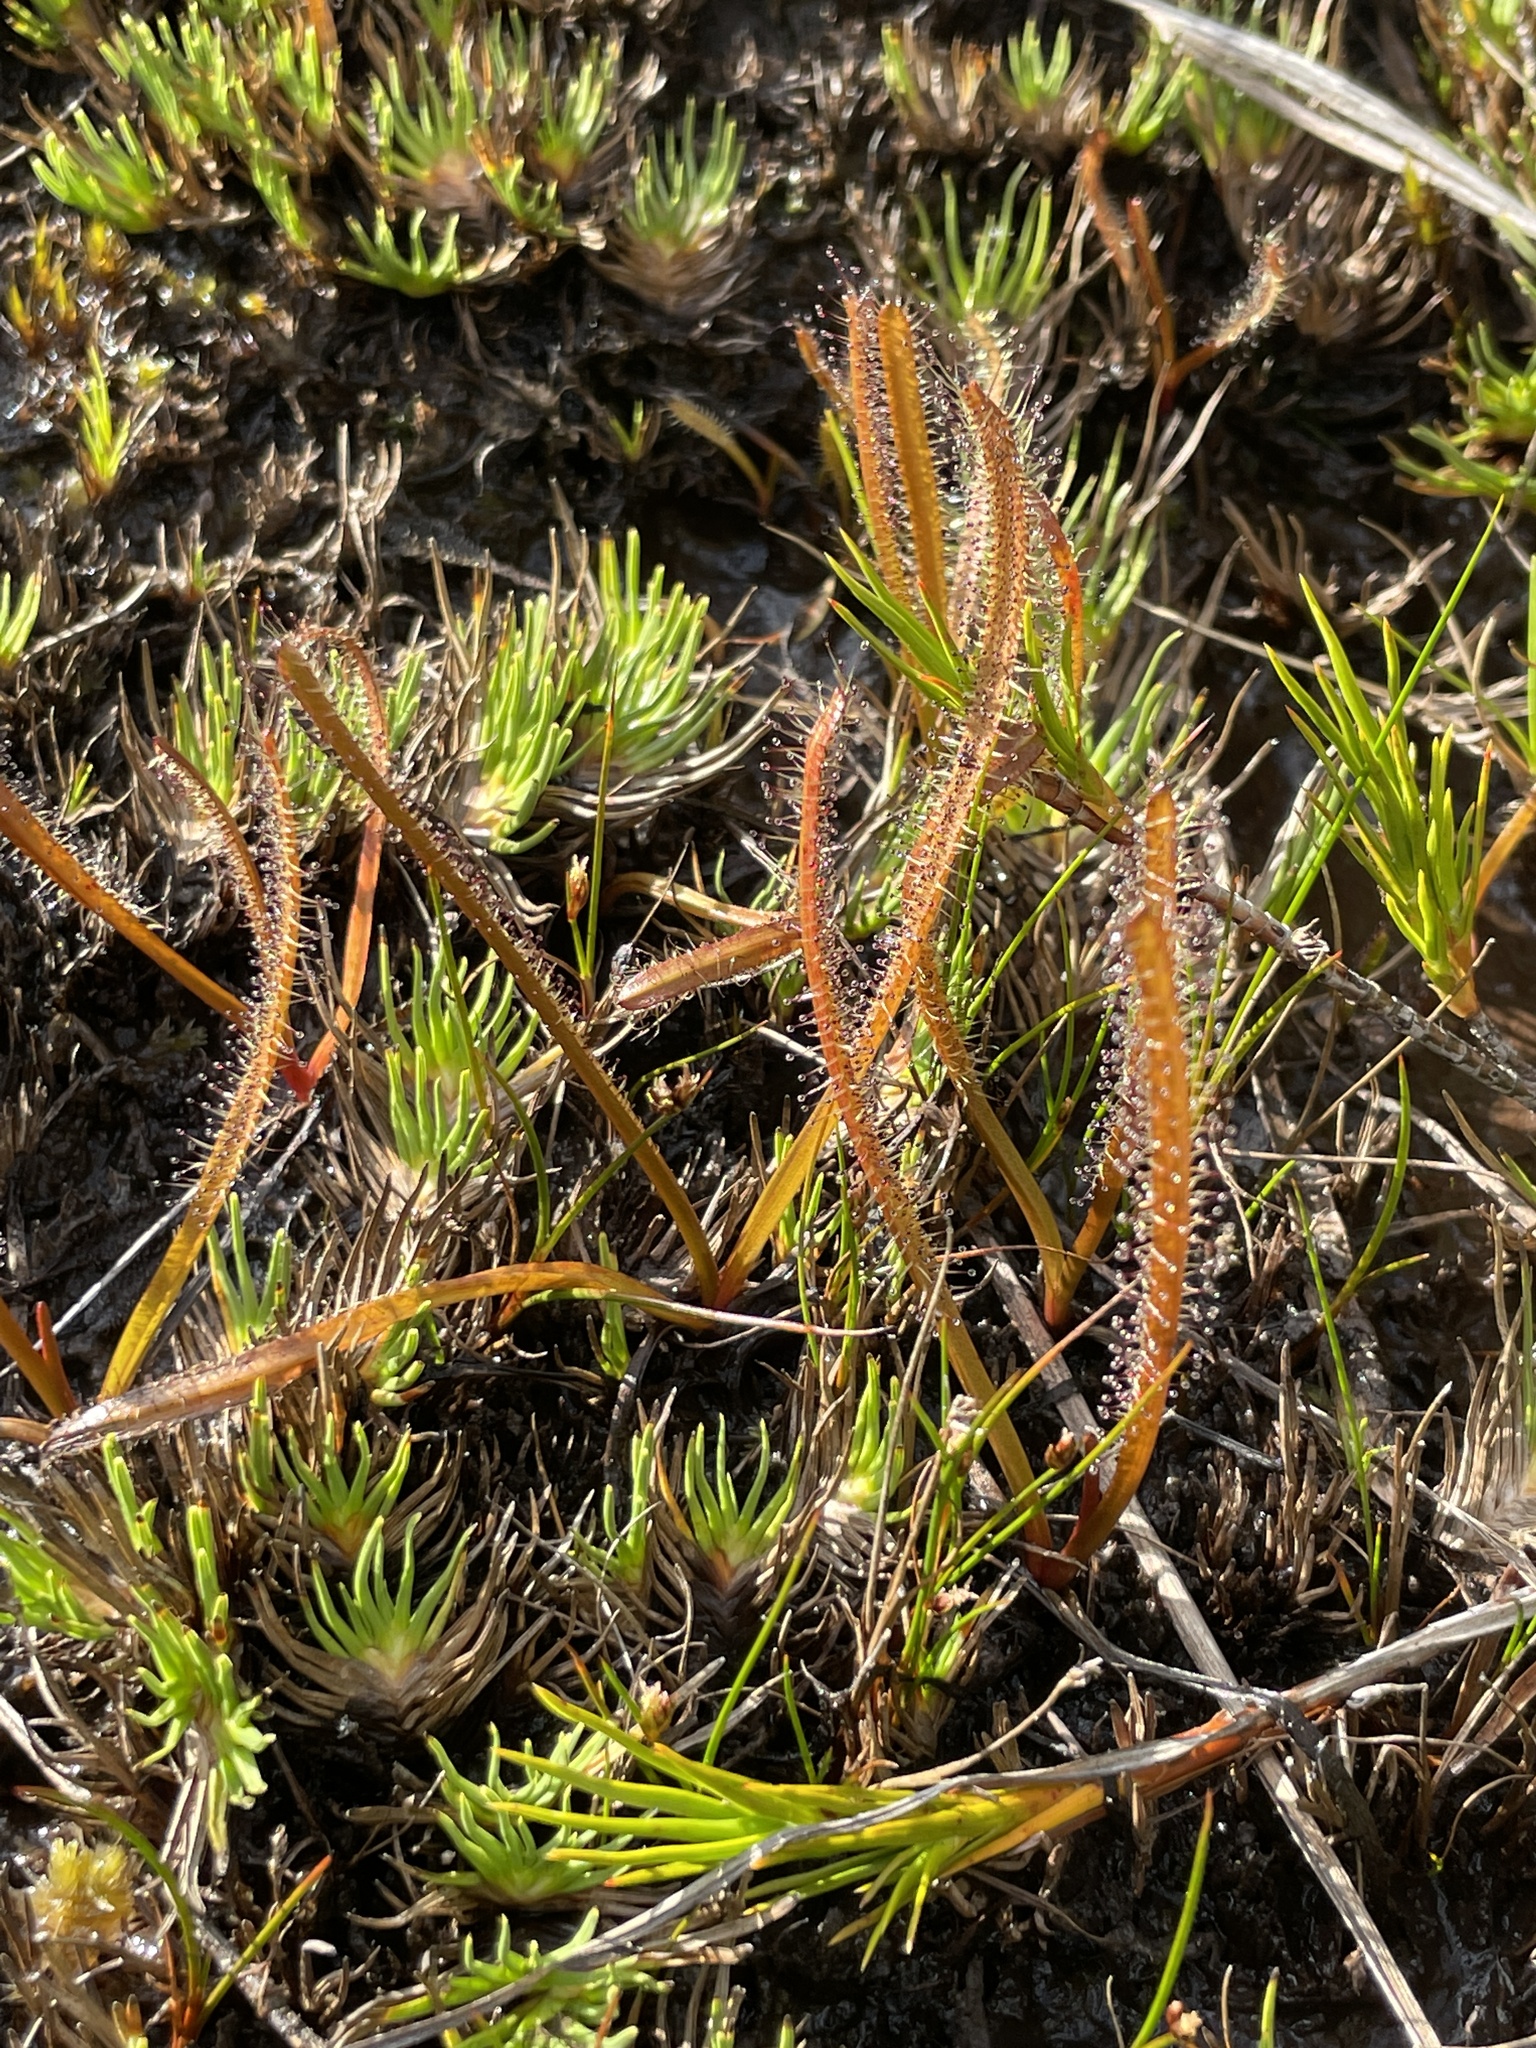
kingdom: Plantae
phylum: Tracheophyta
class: Magnoliopsida
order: Caryophyllales
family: Droseraceae
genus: Drosera
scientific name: Drosera arcturi
